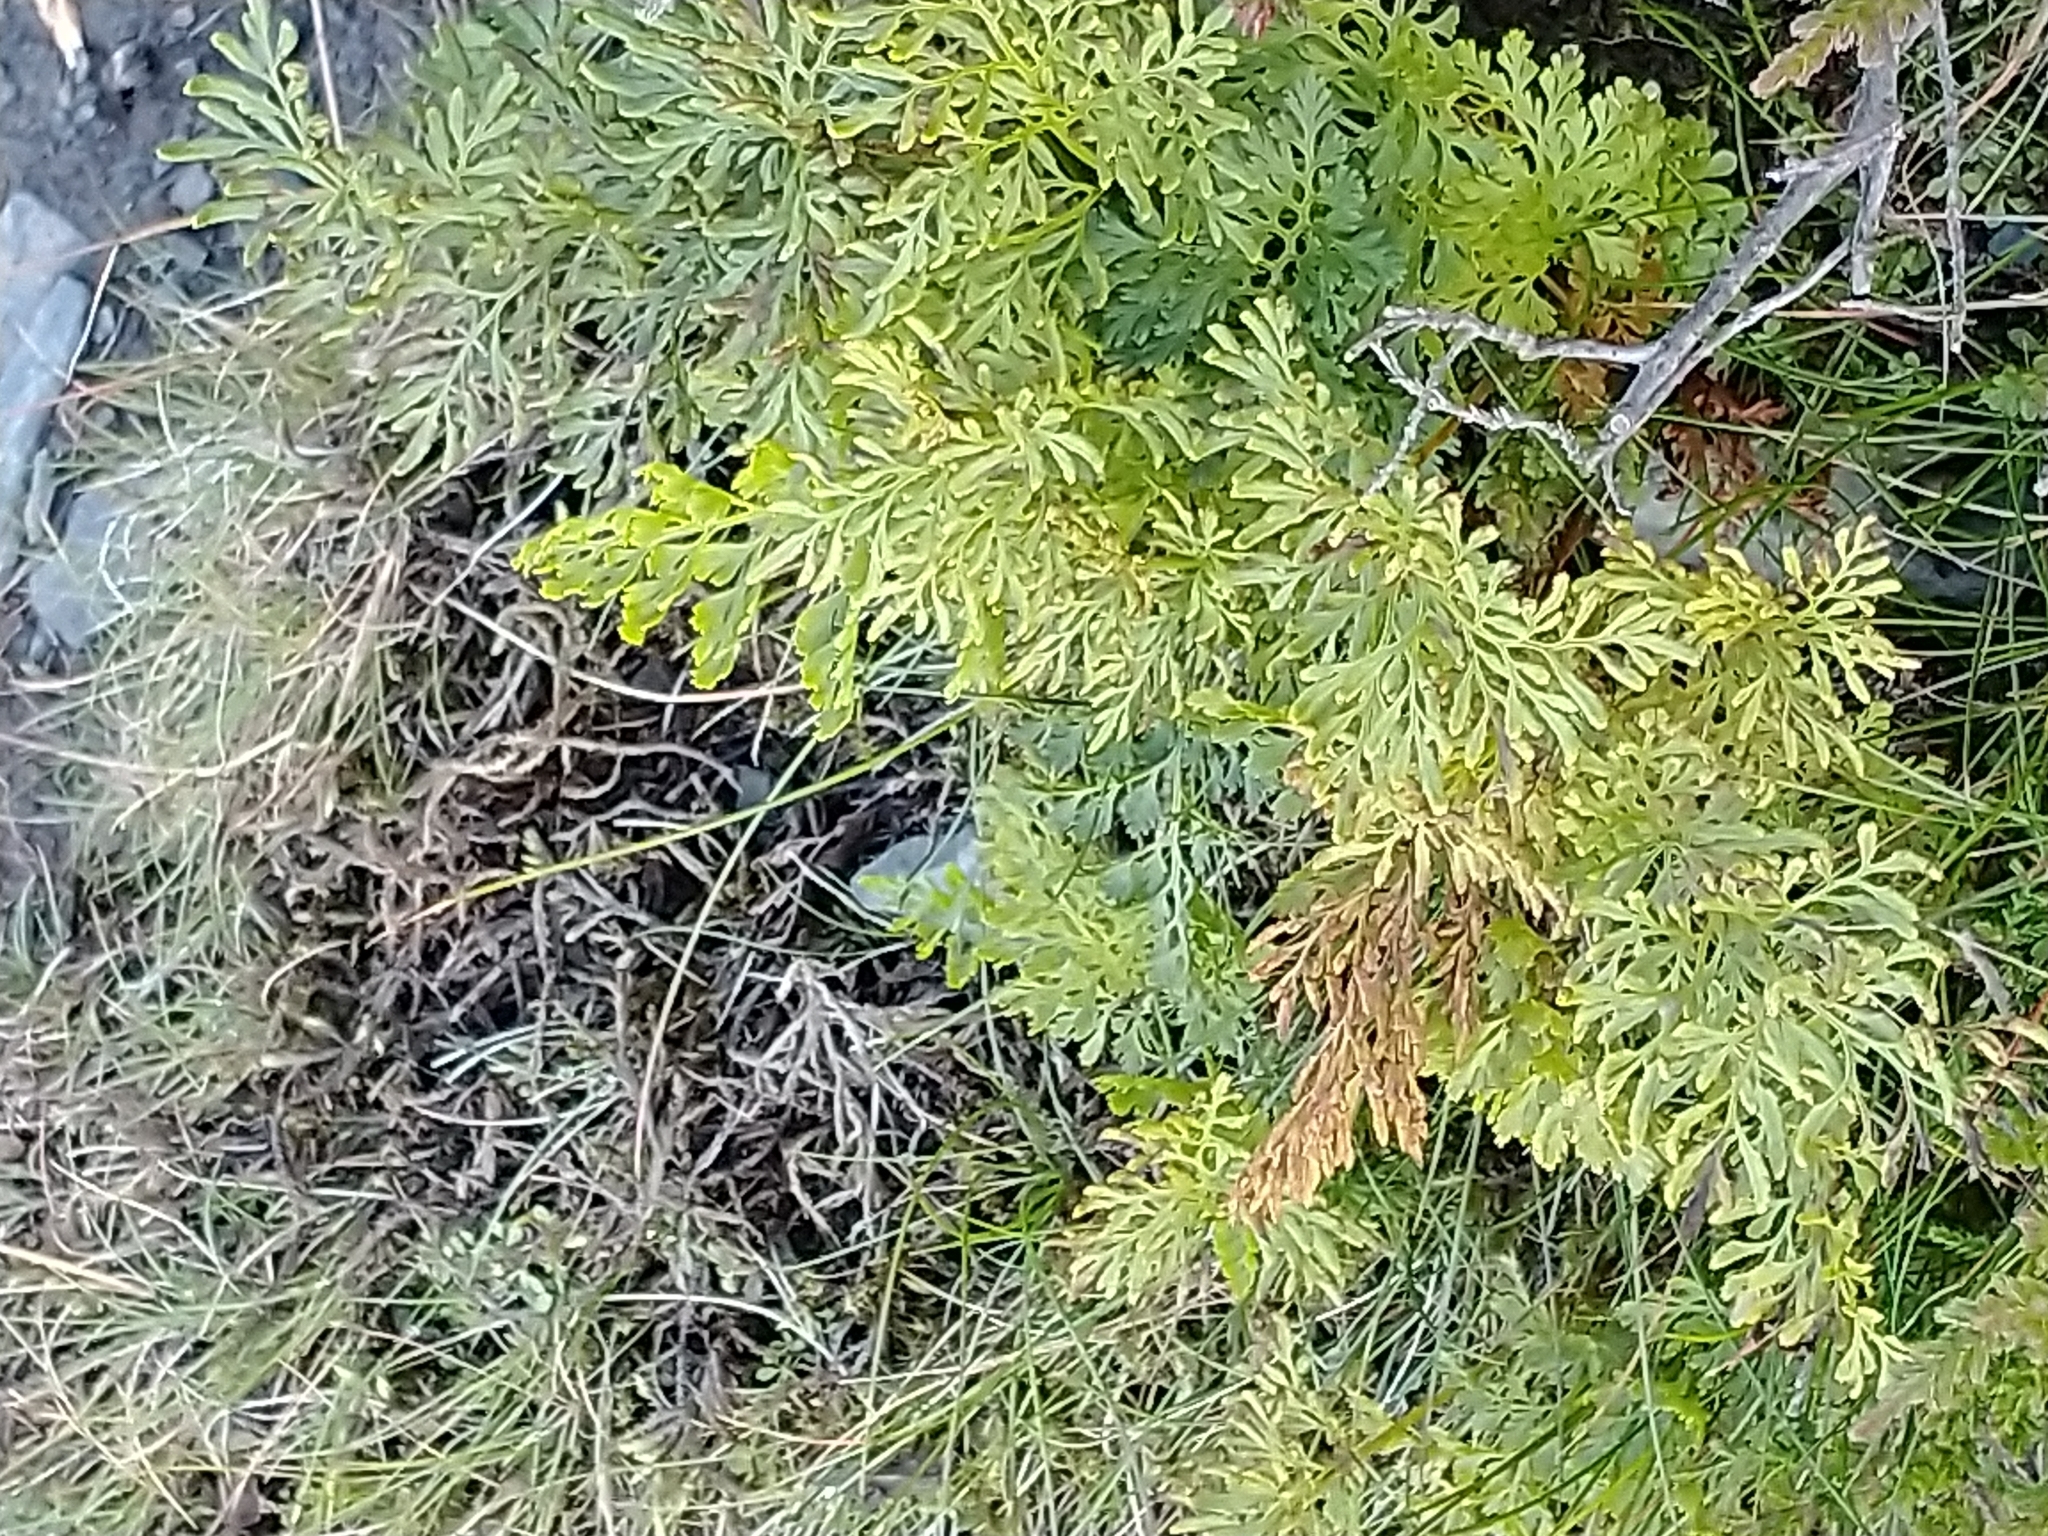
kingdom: Plantae
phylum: Tracheophyta
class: Polypodiopsida
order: Polypodiales
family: Pteridaceae
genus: Cryptogramma
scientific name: Cryptogramma crispa
